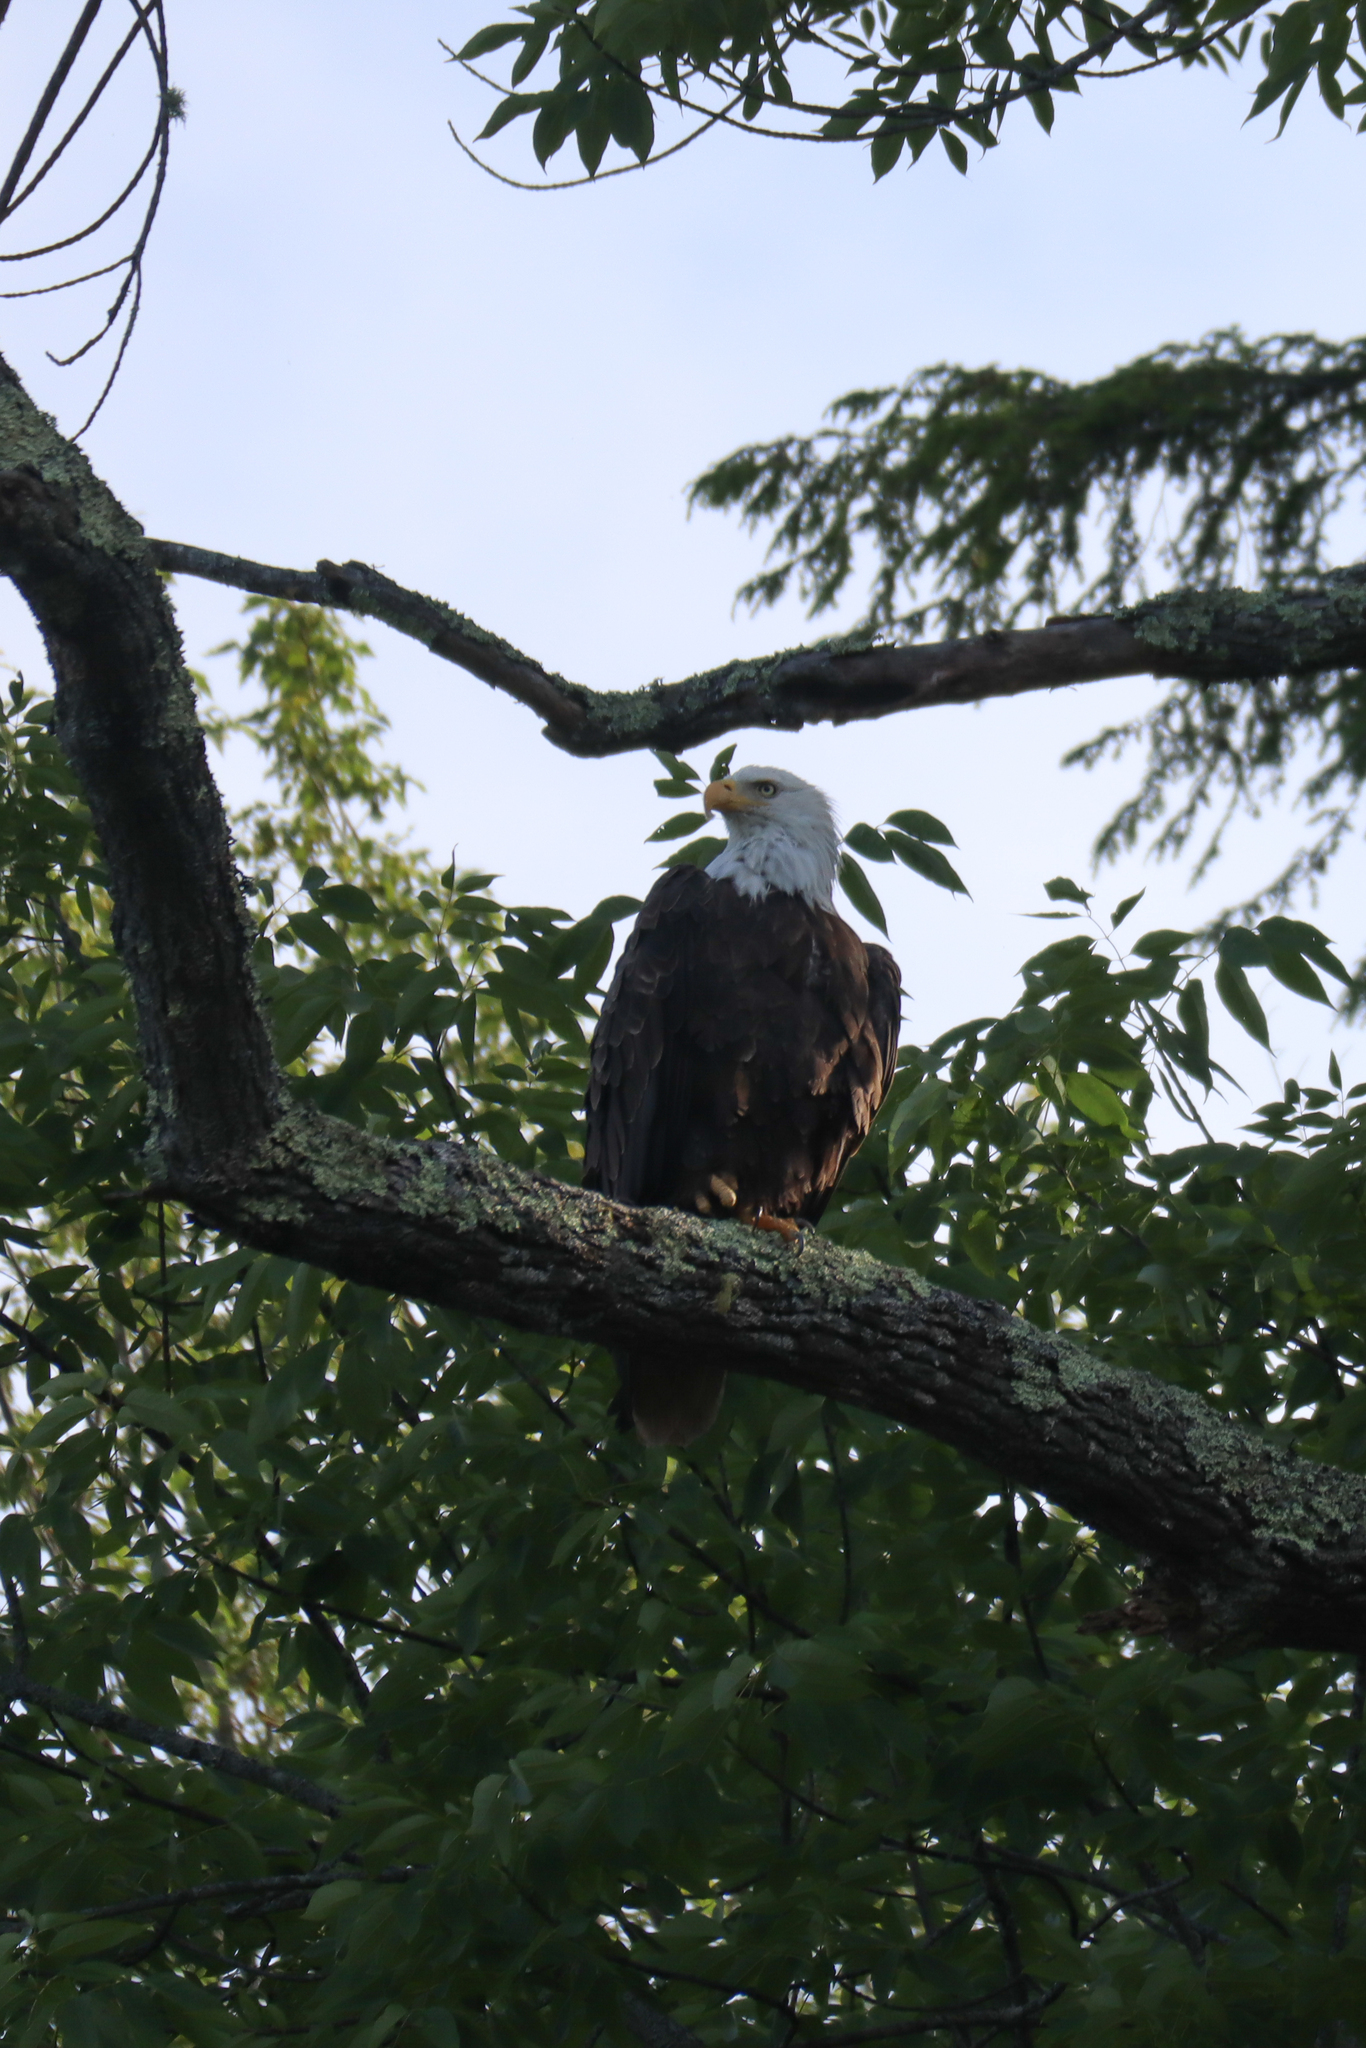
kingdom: Animalia
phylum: Chordata
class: Aves
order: Accipitriformes
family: Accipitridae
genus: Haliaeetus
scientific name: Haliaeetus leucocephalus
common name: Bald eagle
